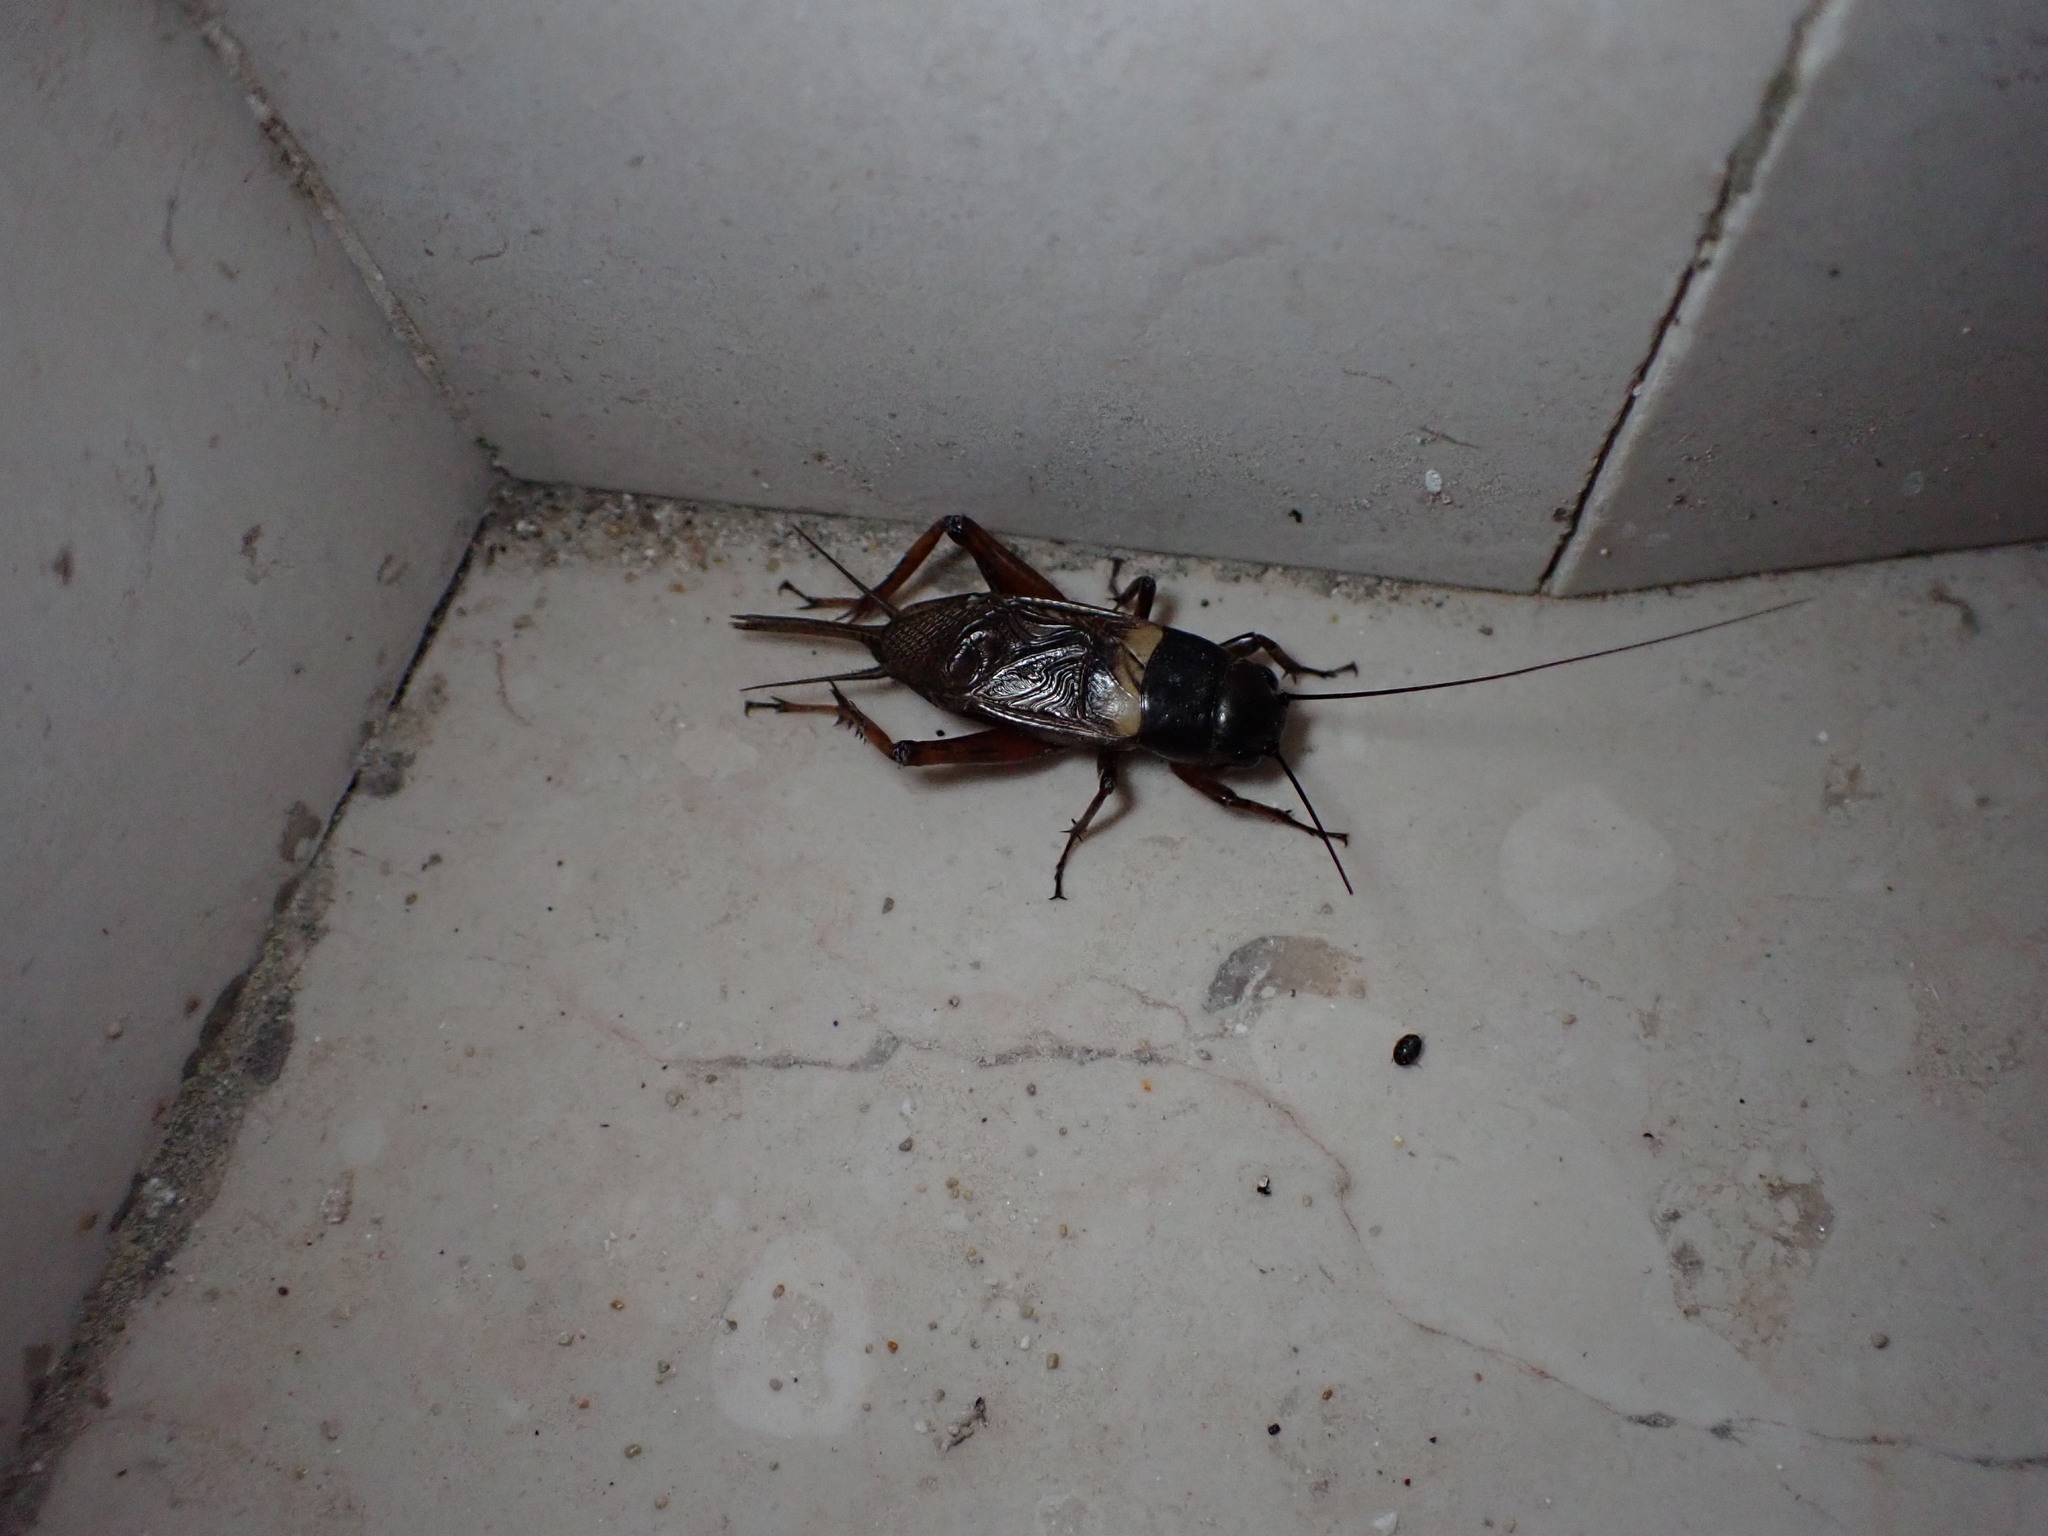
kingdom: Animalia
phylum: Arthropoda
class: Insecta
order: Orthoptera
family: Gryllidae
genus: Gryllus
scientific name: Gryllus bimaculatus
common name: Two-spotted cricket
